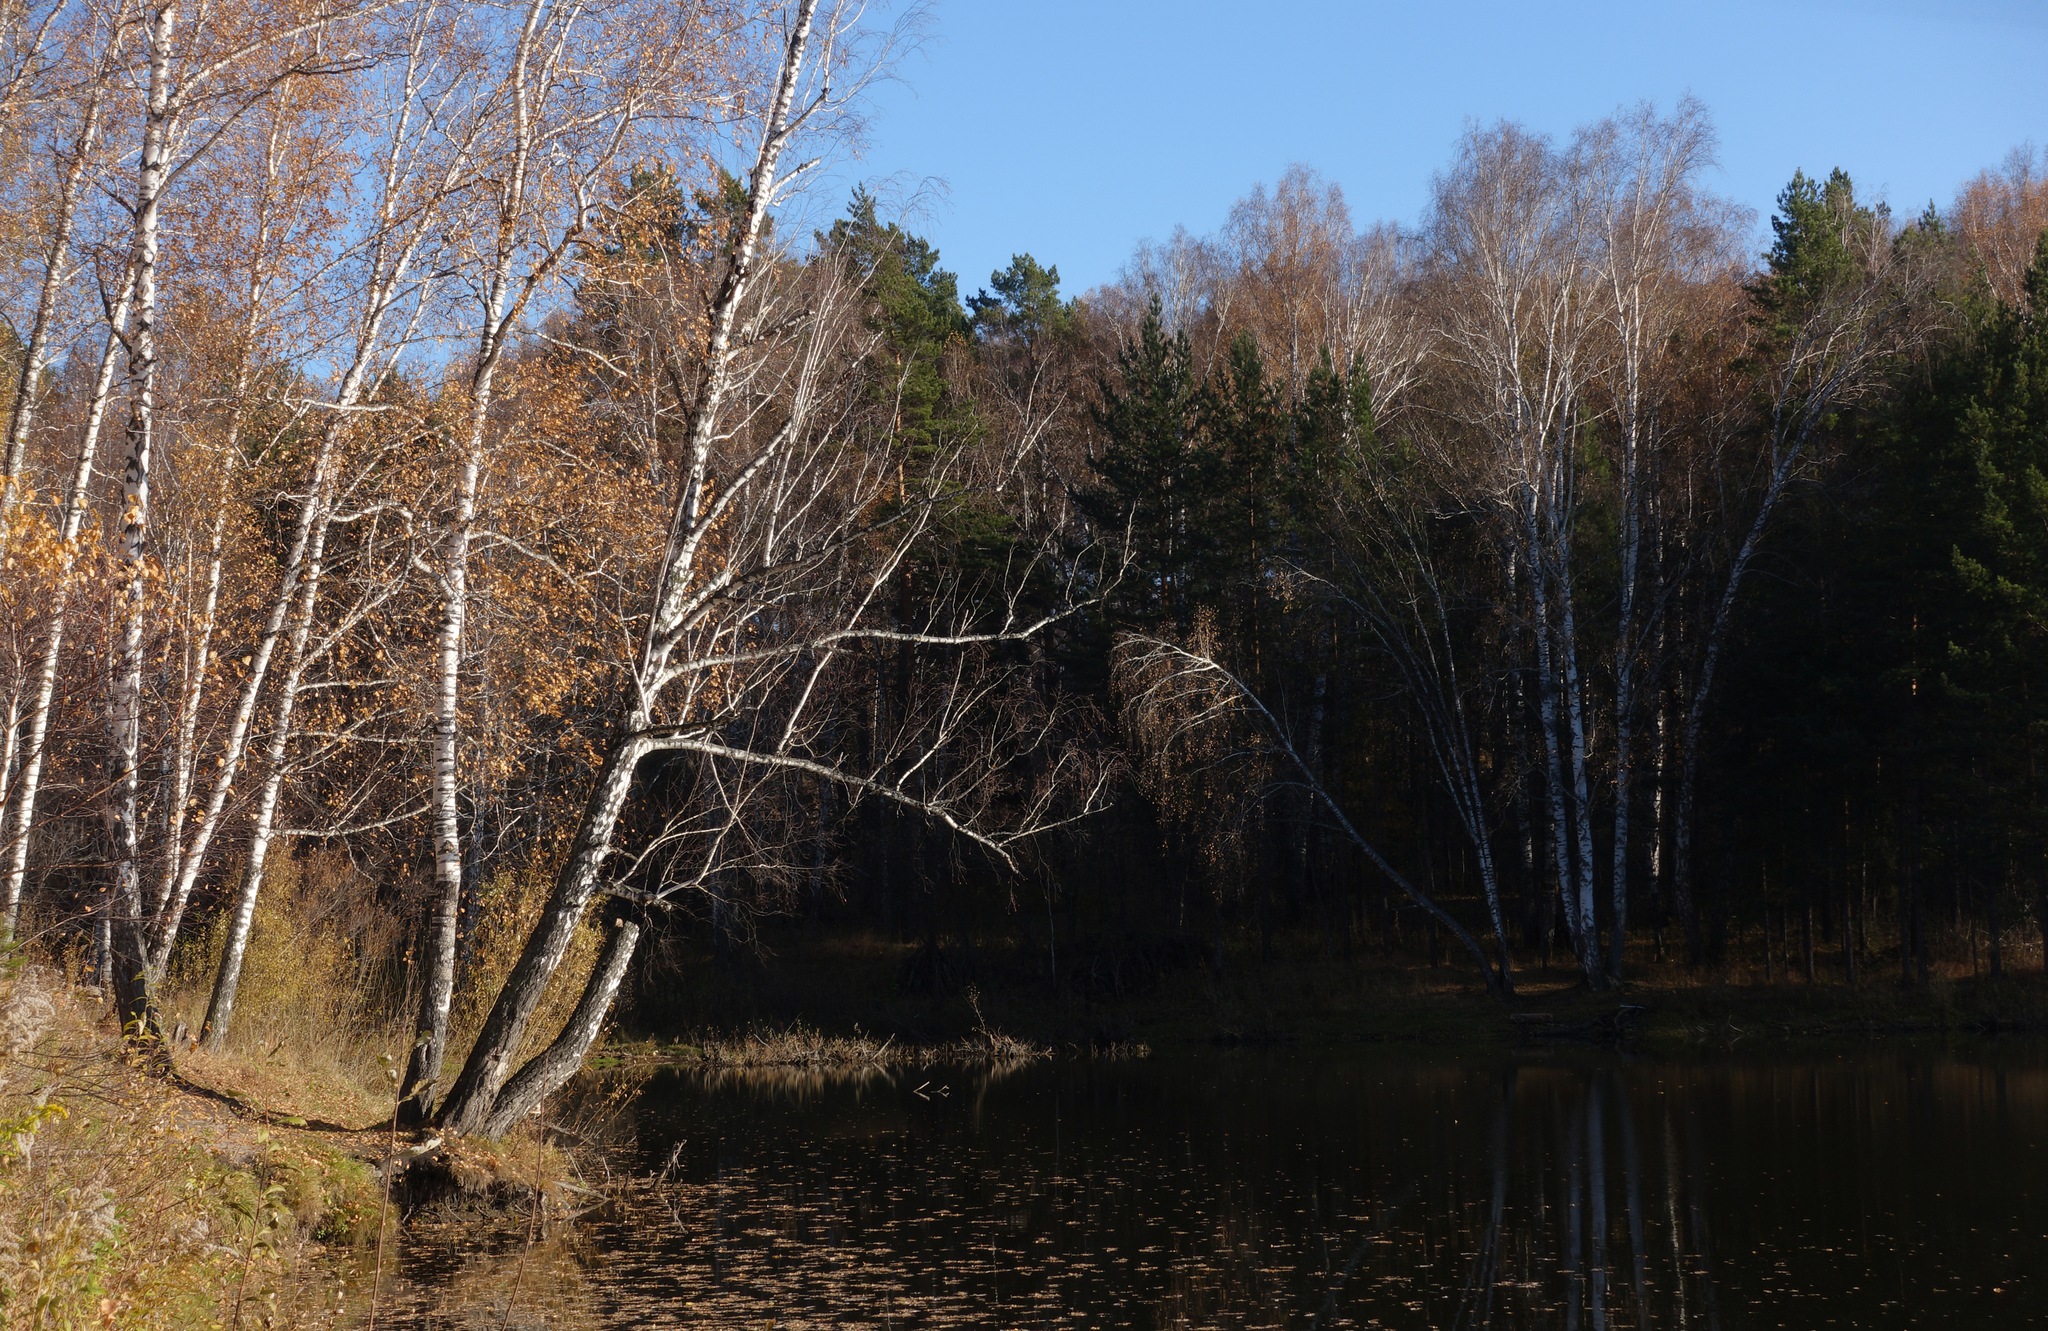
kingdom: Plantae
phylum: Tracheophyta
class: Magnoliopsida
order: Fagales
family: Betulaceae
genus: Betula
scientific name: Betula pendula
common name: Silver birch
